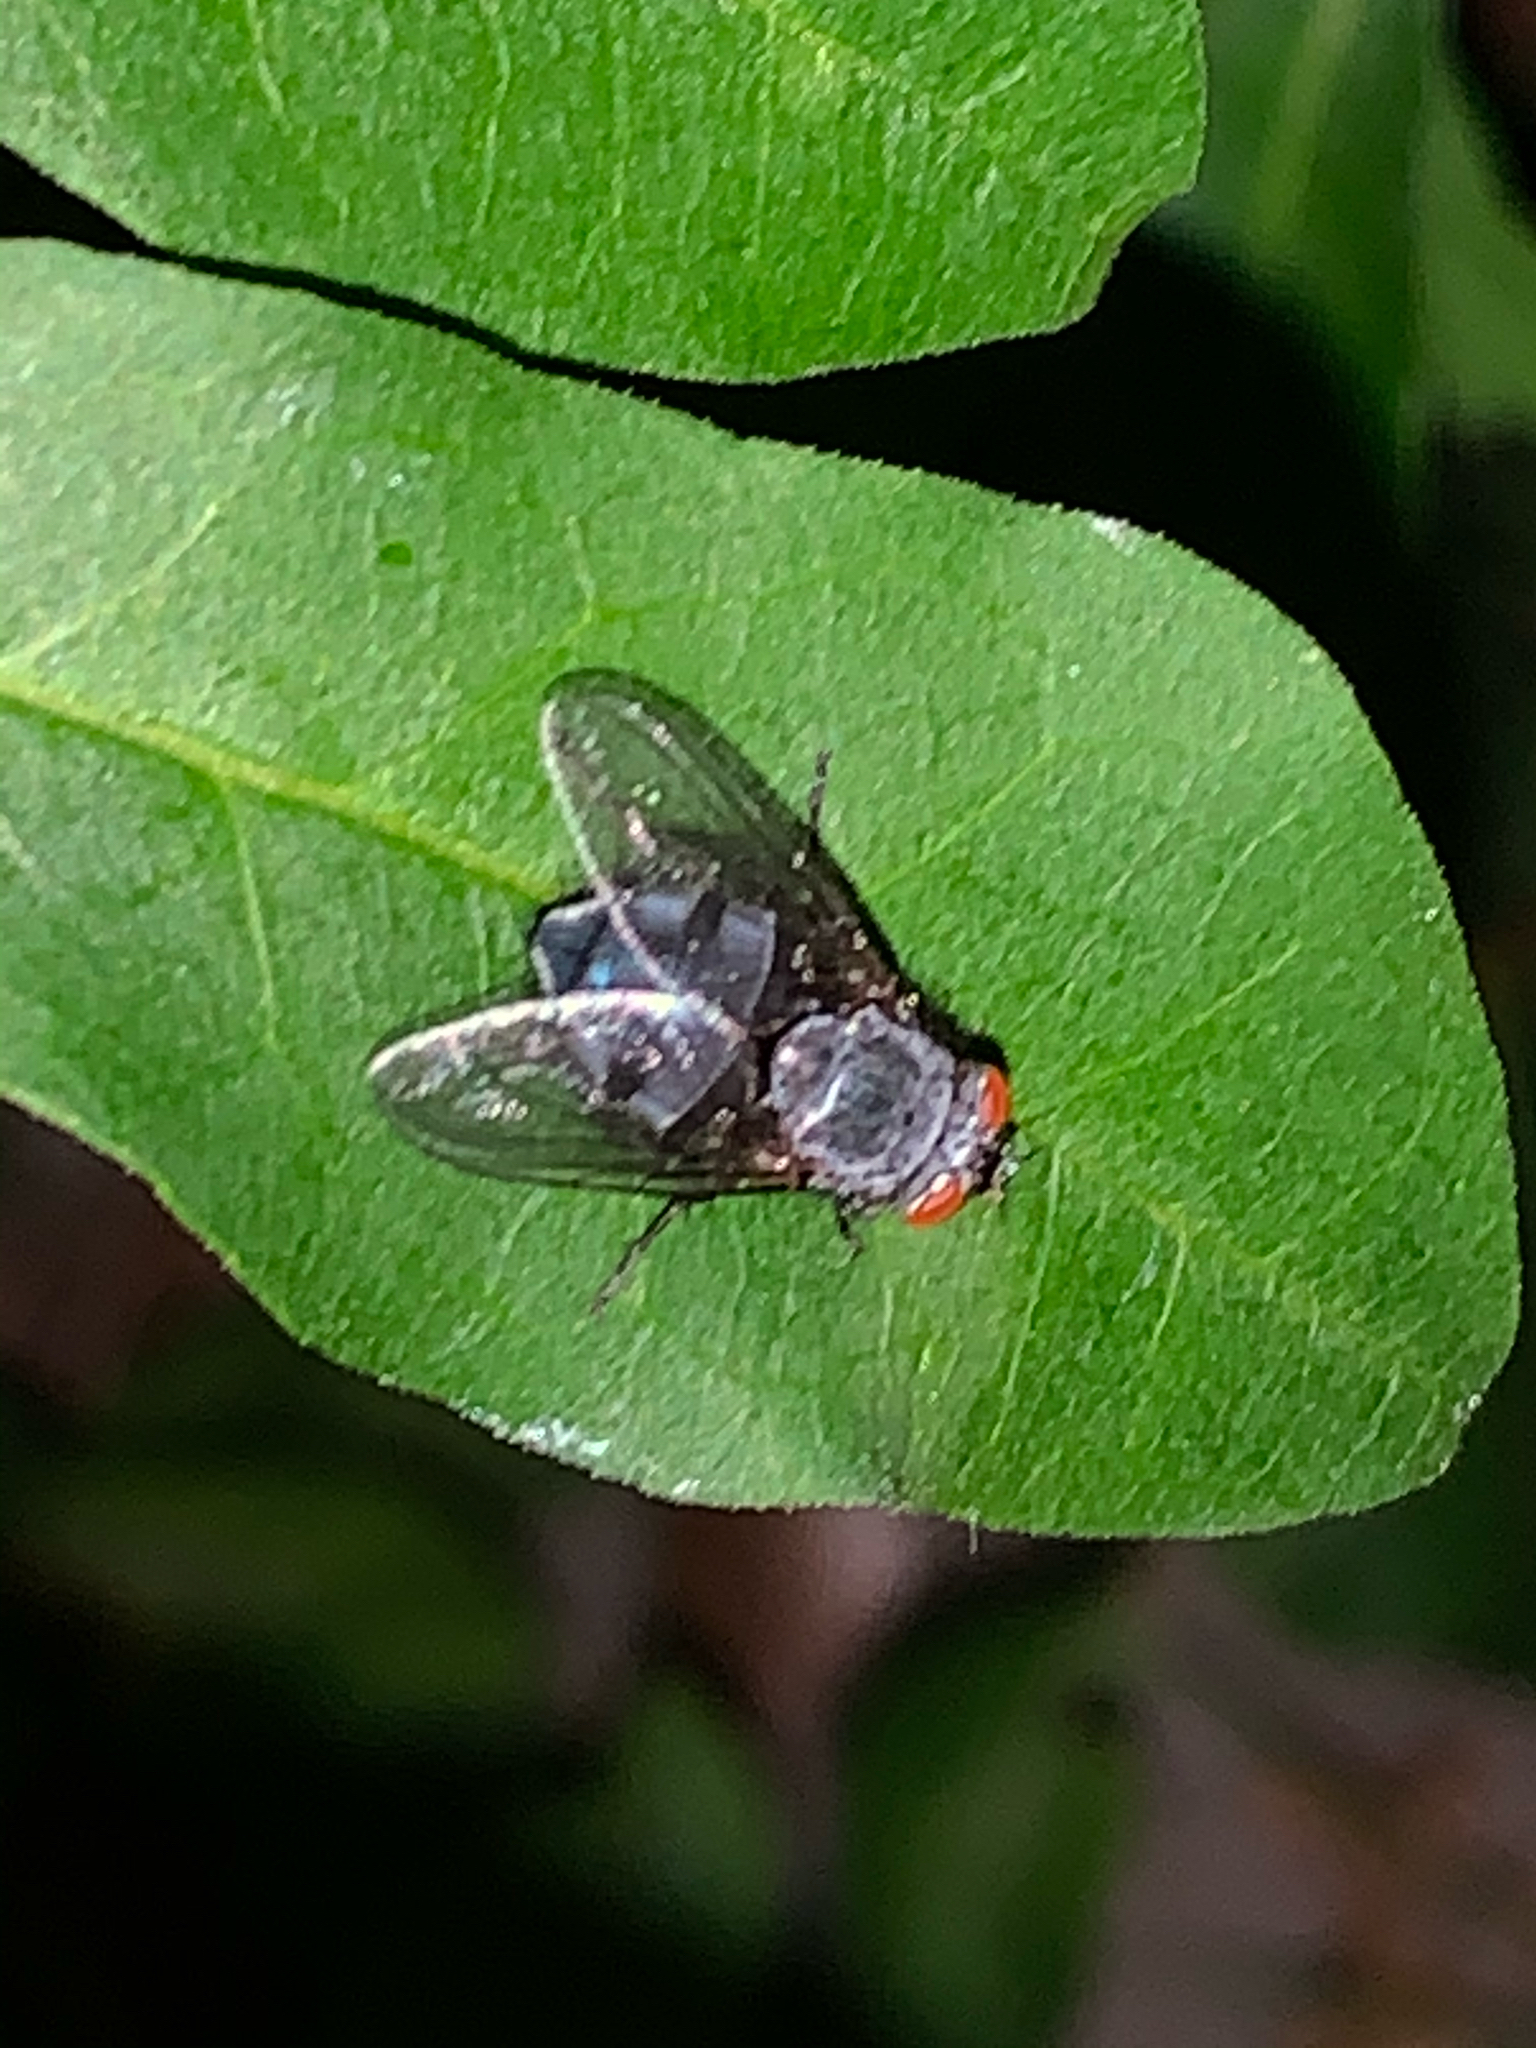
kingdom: Animalia
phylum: Arthropoda
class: Insecta
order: Diptera
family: Calliphoridae
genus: Calliphora
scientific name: Calliphora
